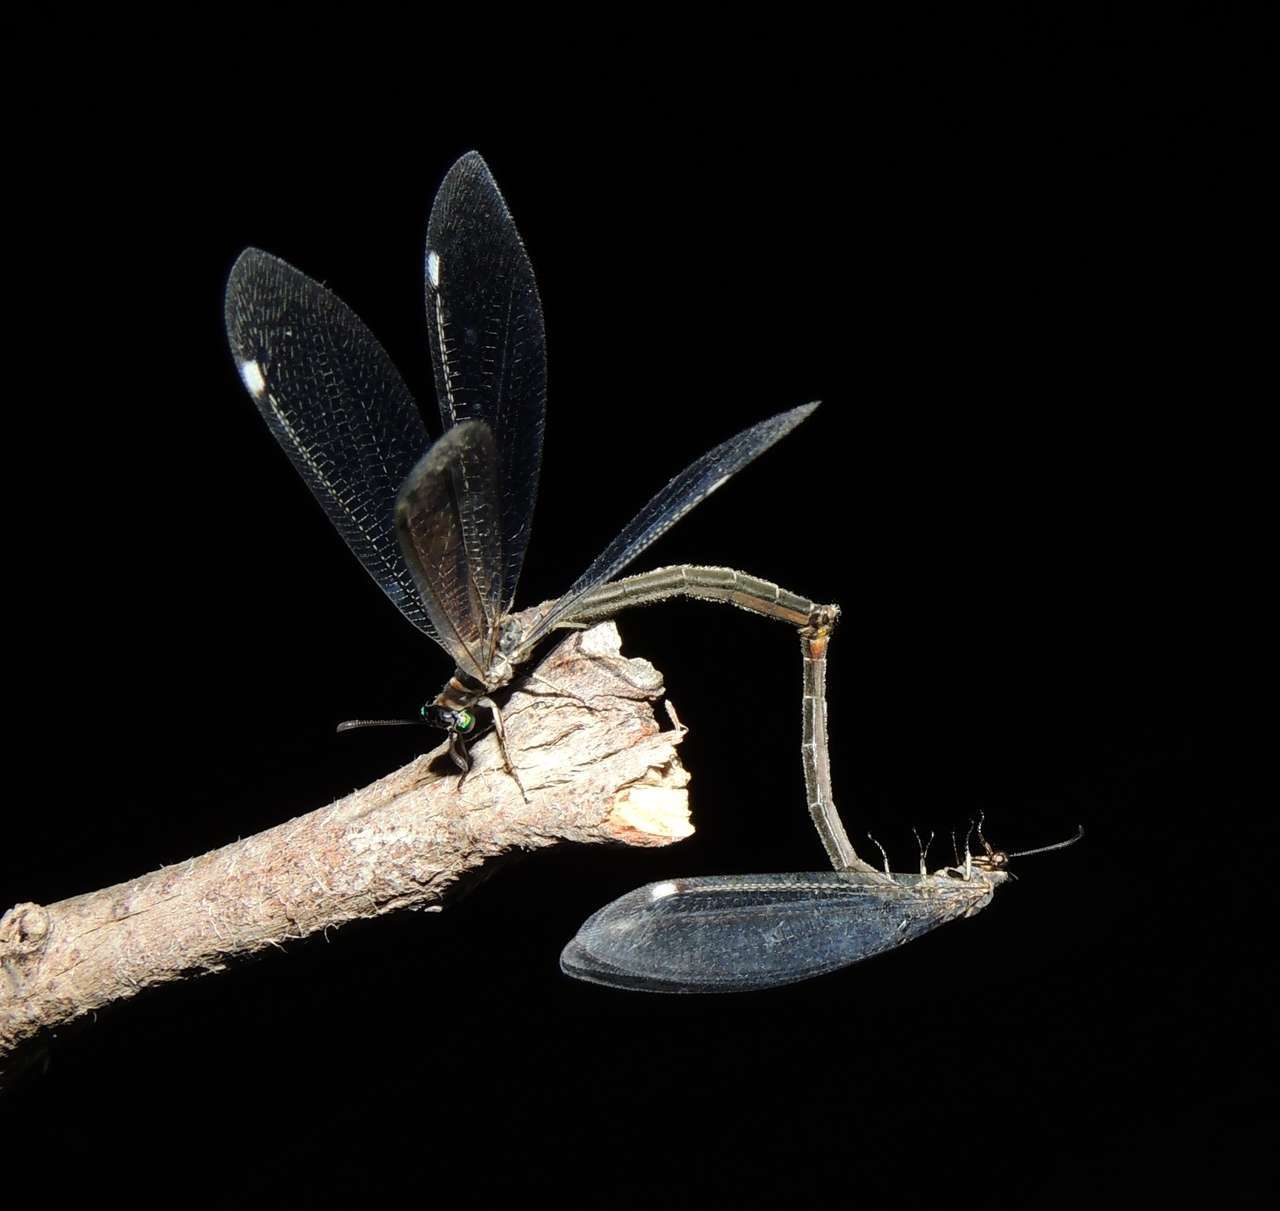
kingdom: Animalia
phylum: Arthropoda
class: Insecta
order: Neuroptera
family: Myrmeleontidae
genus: Myrmeleon
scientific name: Myrmeleon acer
